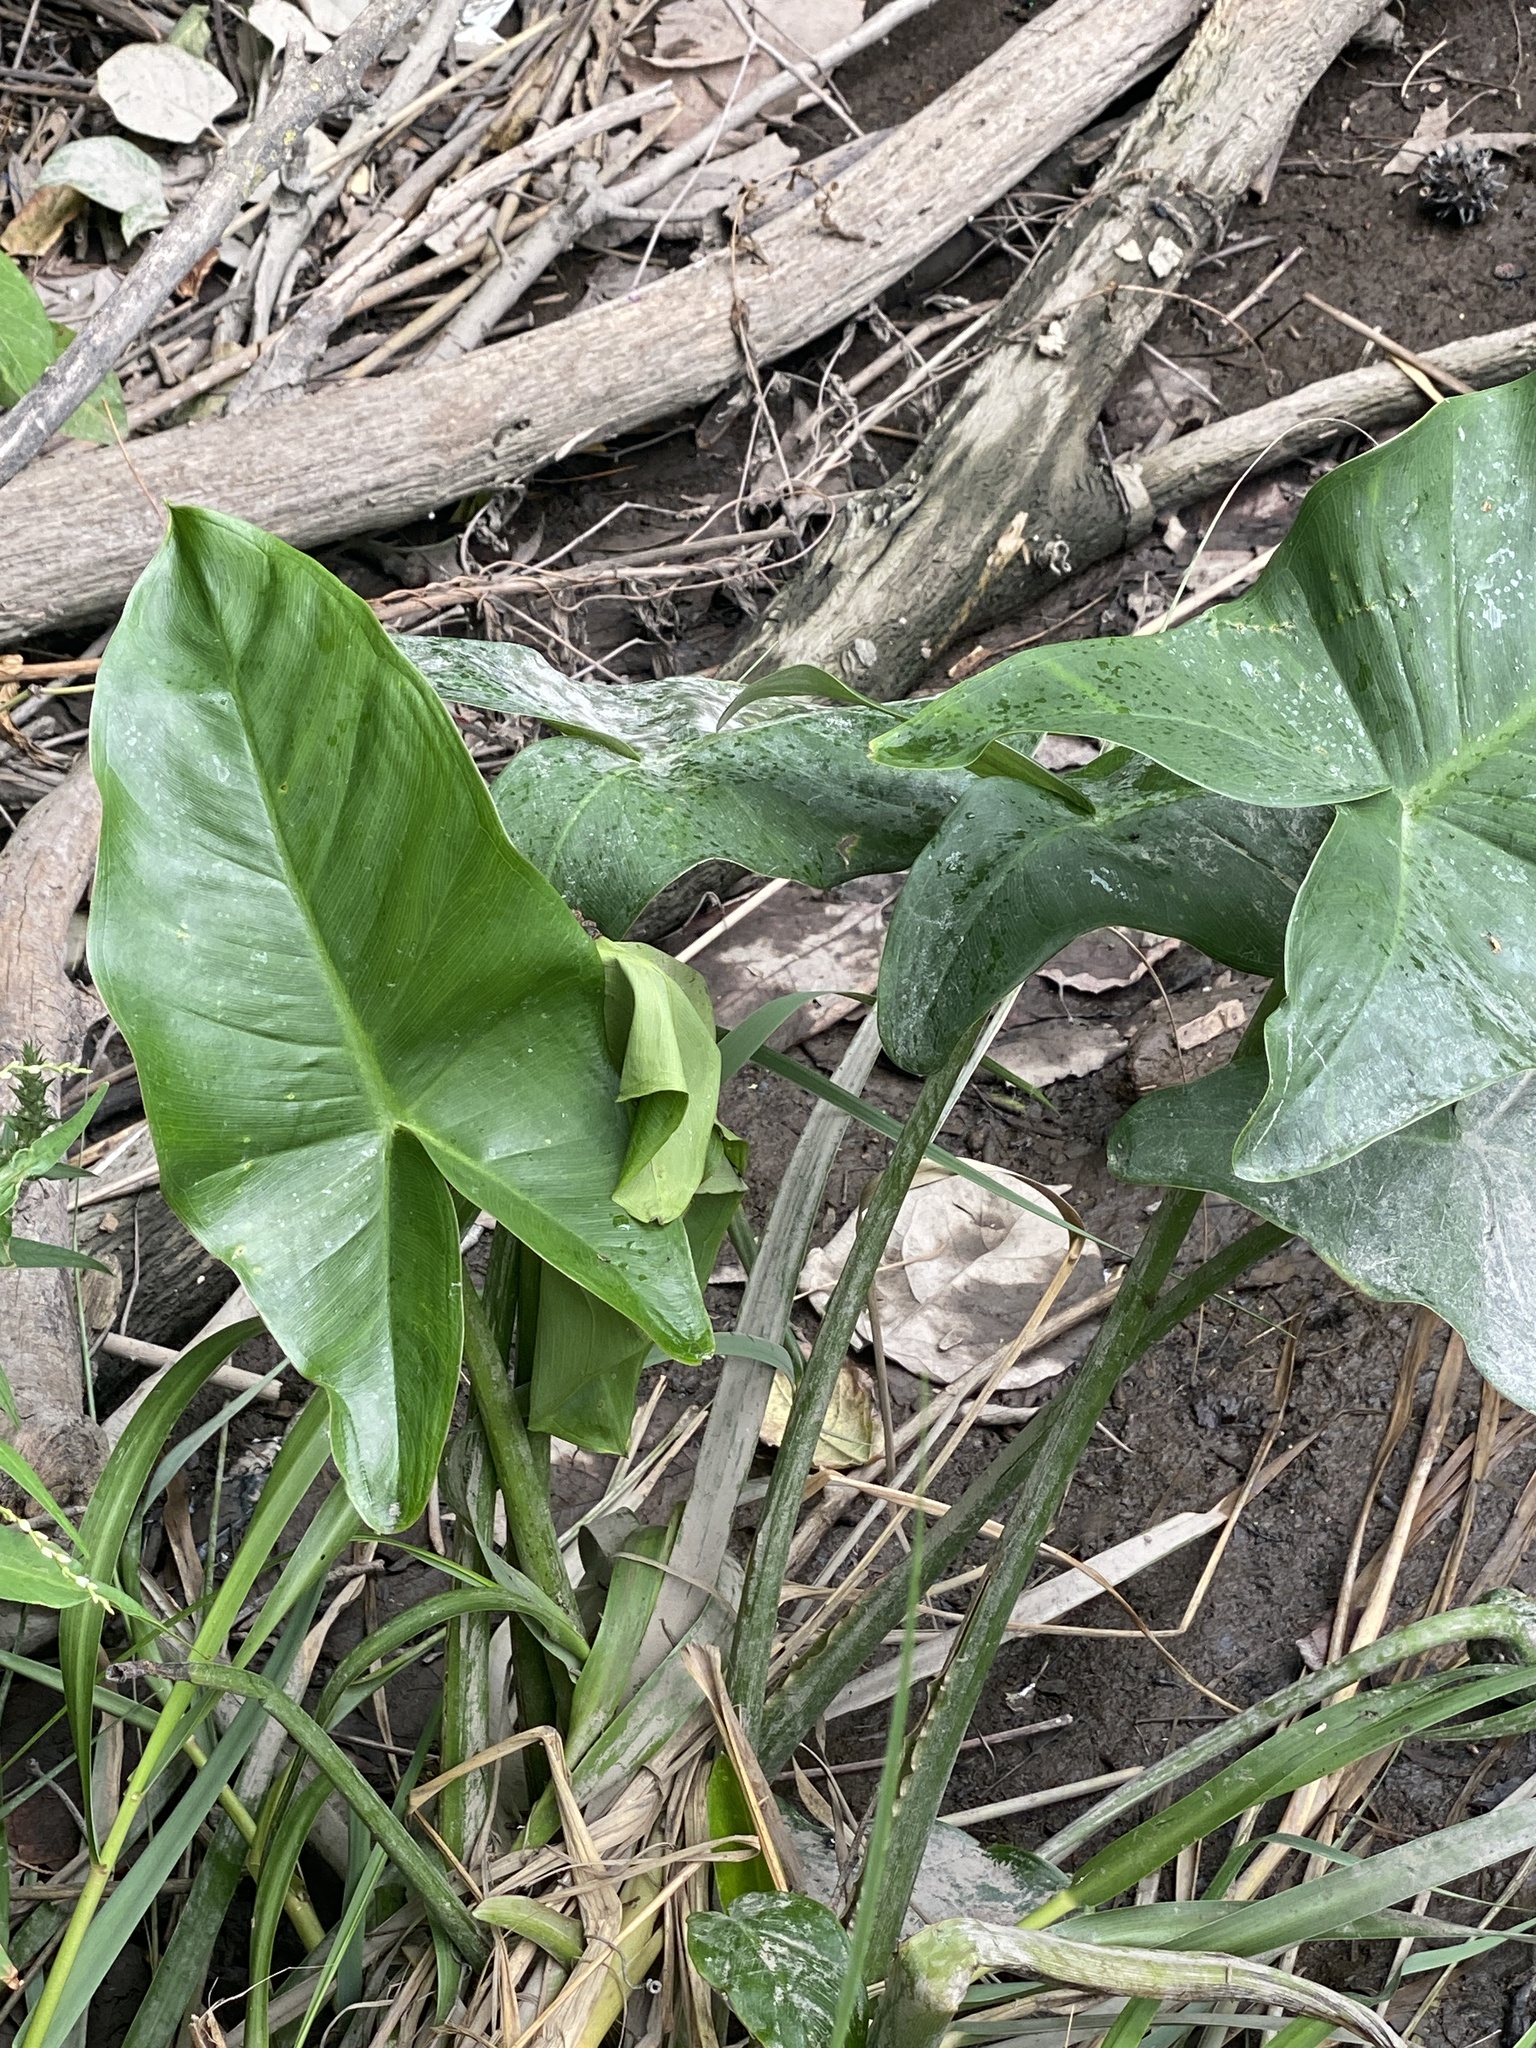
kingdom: Plantae
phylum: Tracheophyta
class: Liliopsida
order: Alismatales
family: Araceae
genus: Peltandra
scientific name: Peltandra virginica
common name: Arrow arum
